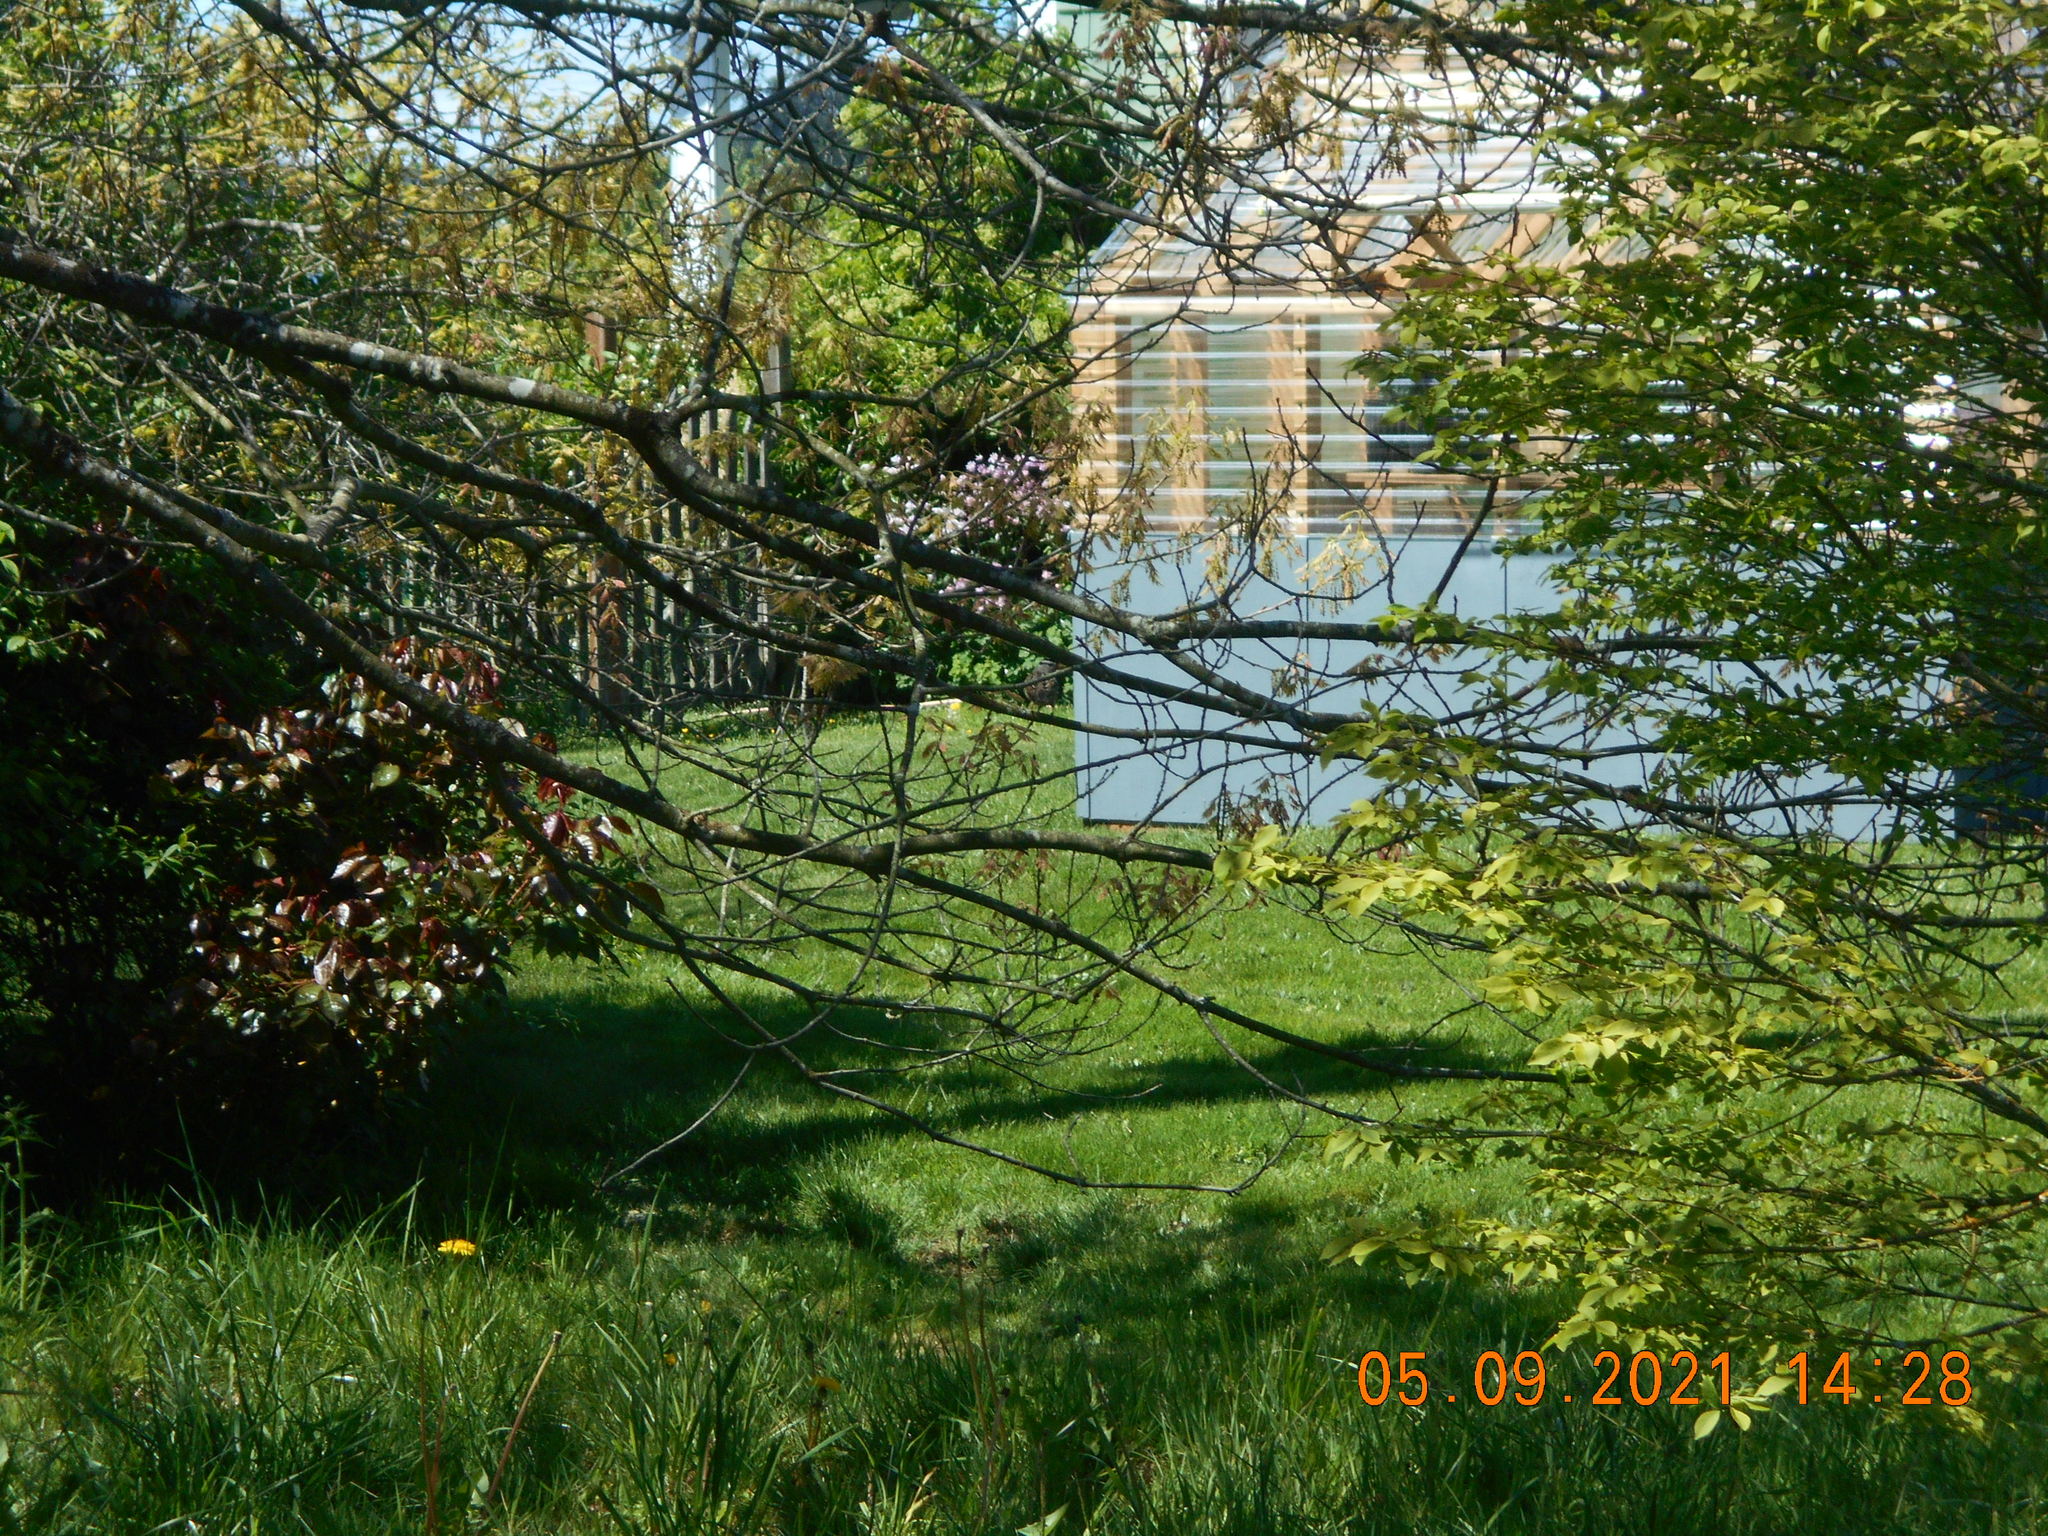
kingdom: Animalia
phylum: Chordata
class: Aves
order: Passeriformes
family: Passerellidae
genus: Zonotrichia
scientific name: Zonotrichia leucophrys
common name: White-crowned sparrow
